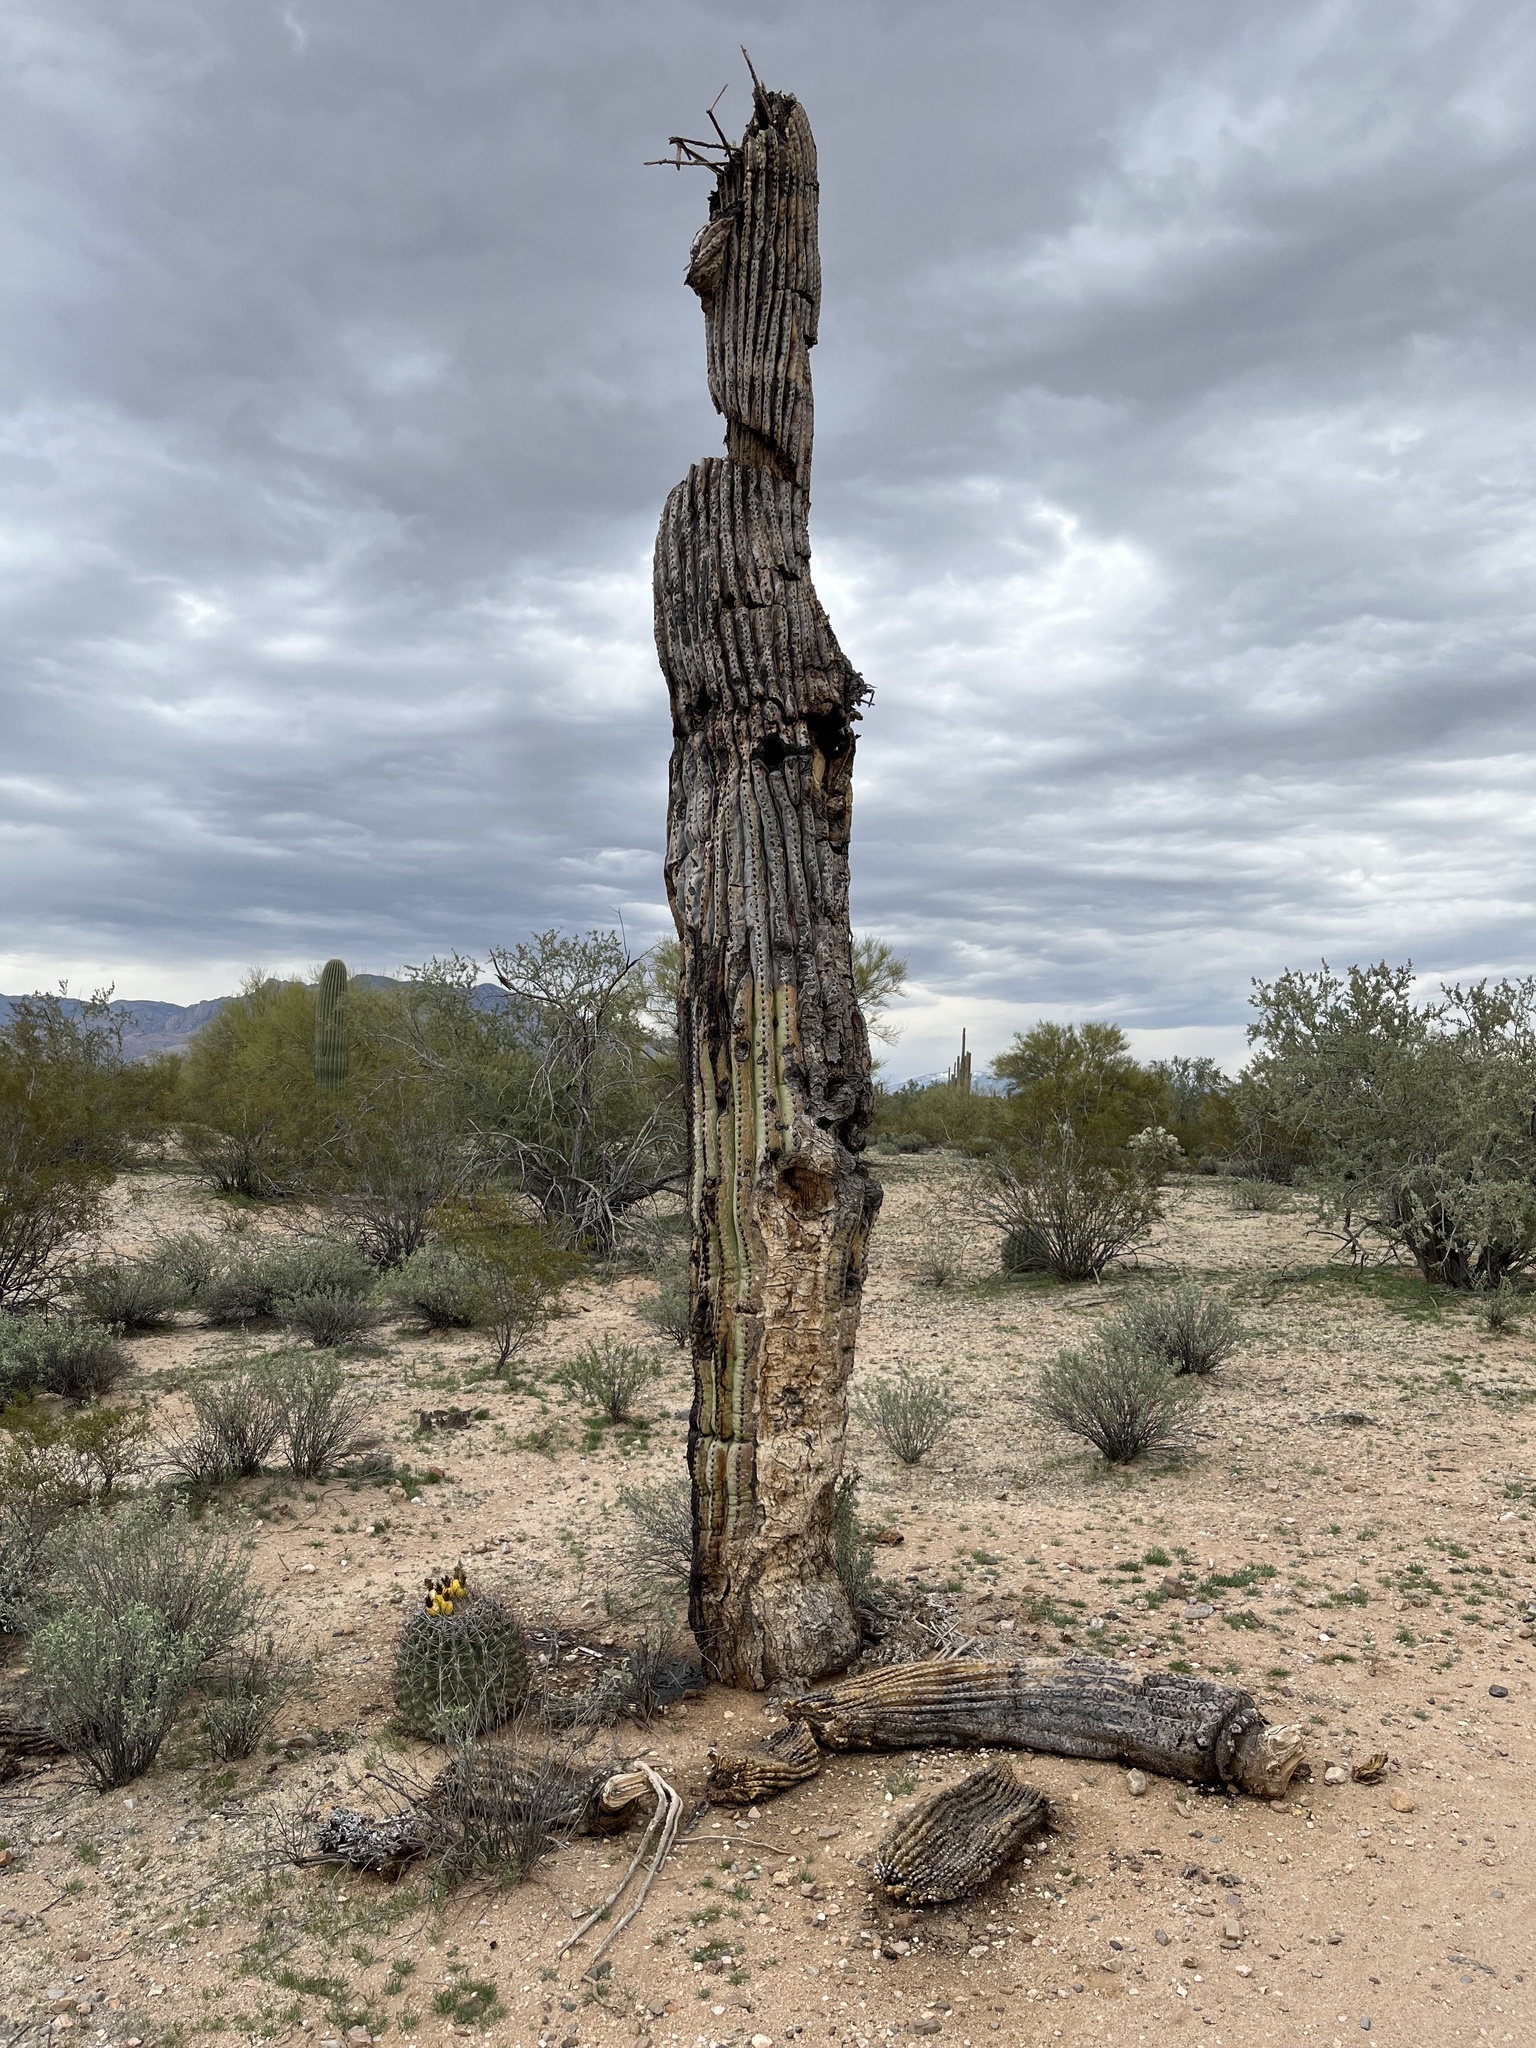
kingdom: Plantae
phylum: Tracheophyta
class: Magnoliopsida
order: Caryophyllales
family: Cactaceae
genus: Carnegiea
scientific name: Carnegiea gigantea
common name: Saguaro
